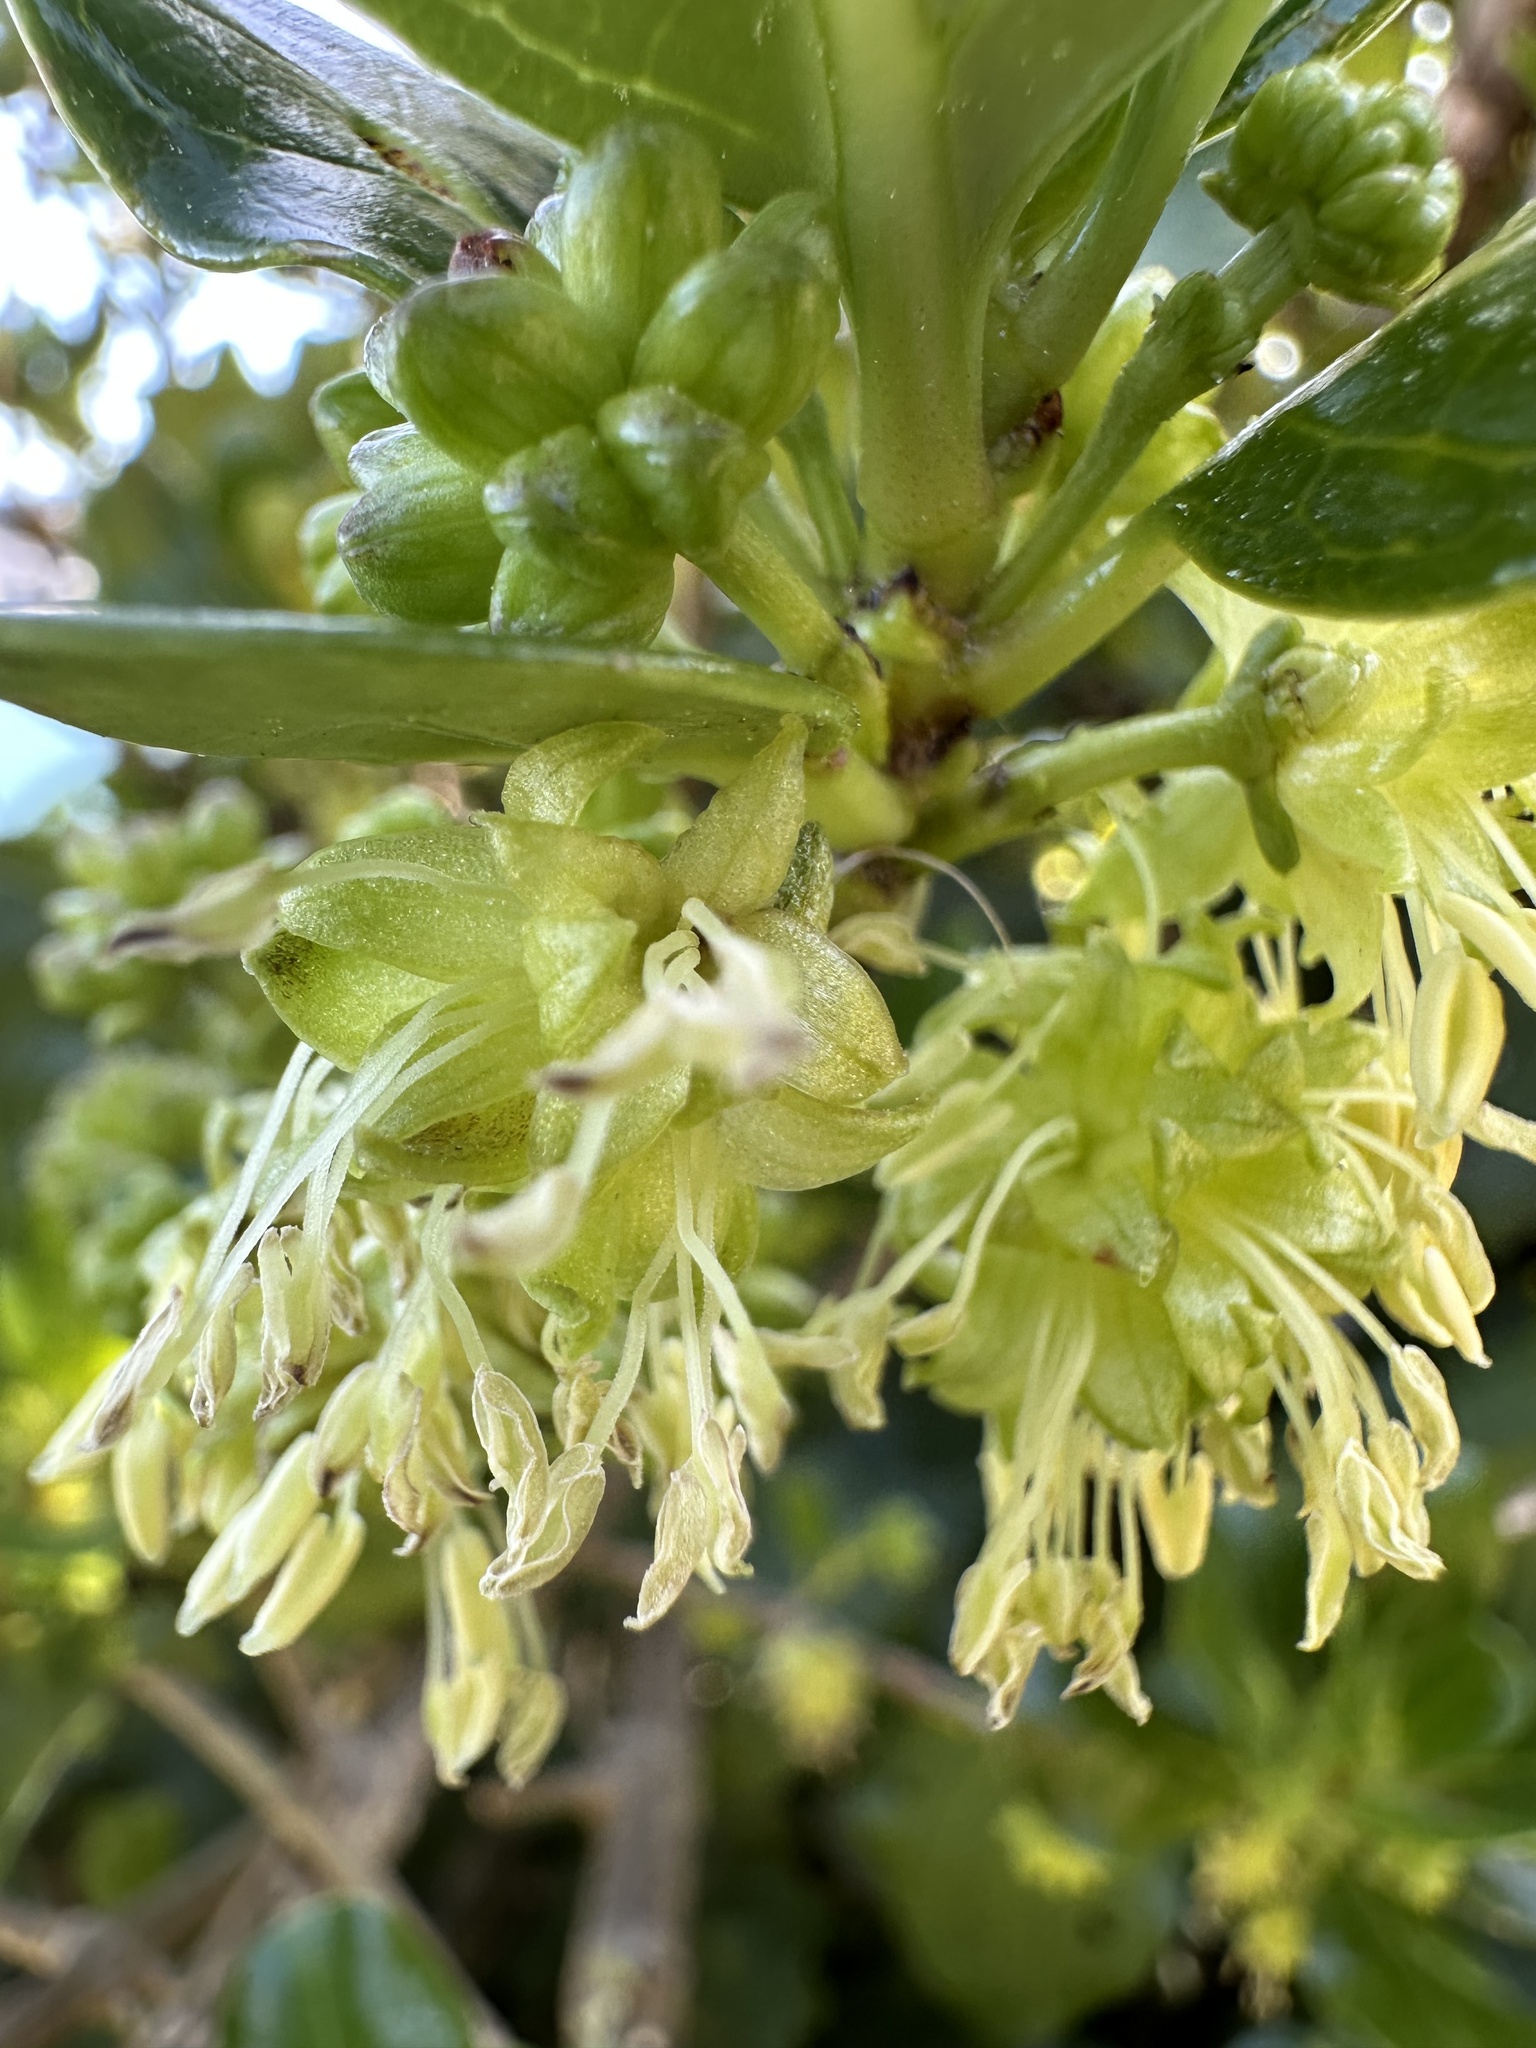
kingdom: Plantae
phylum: Tracheophyta
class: Magnoliopsida
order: Gentianales
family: Rubiaceae
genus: Coprosma
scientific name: Coprosma repens
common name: Tree bedstraw
